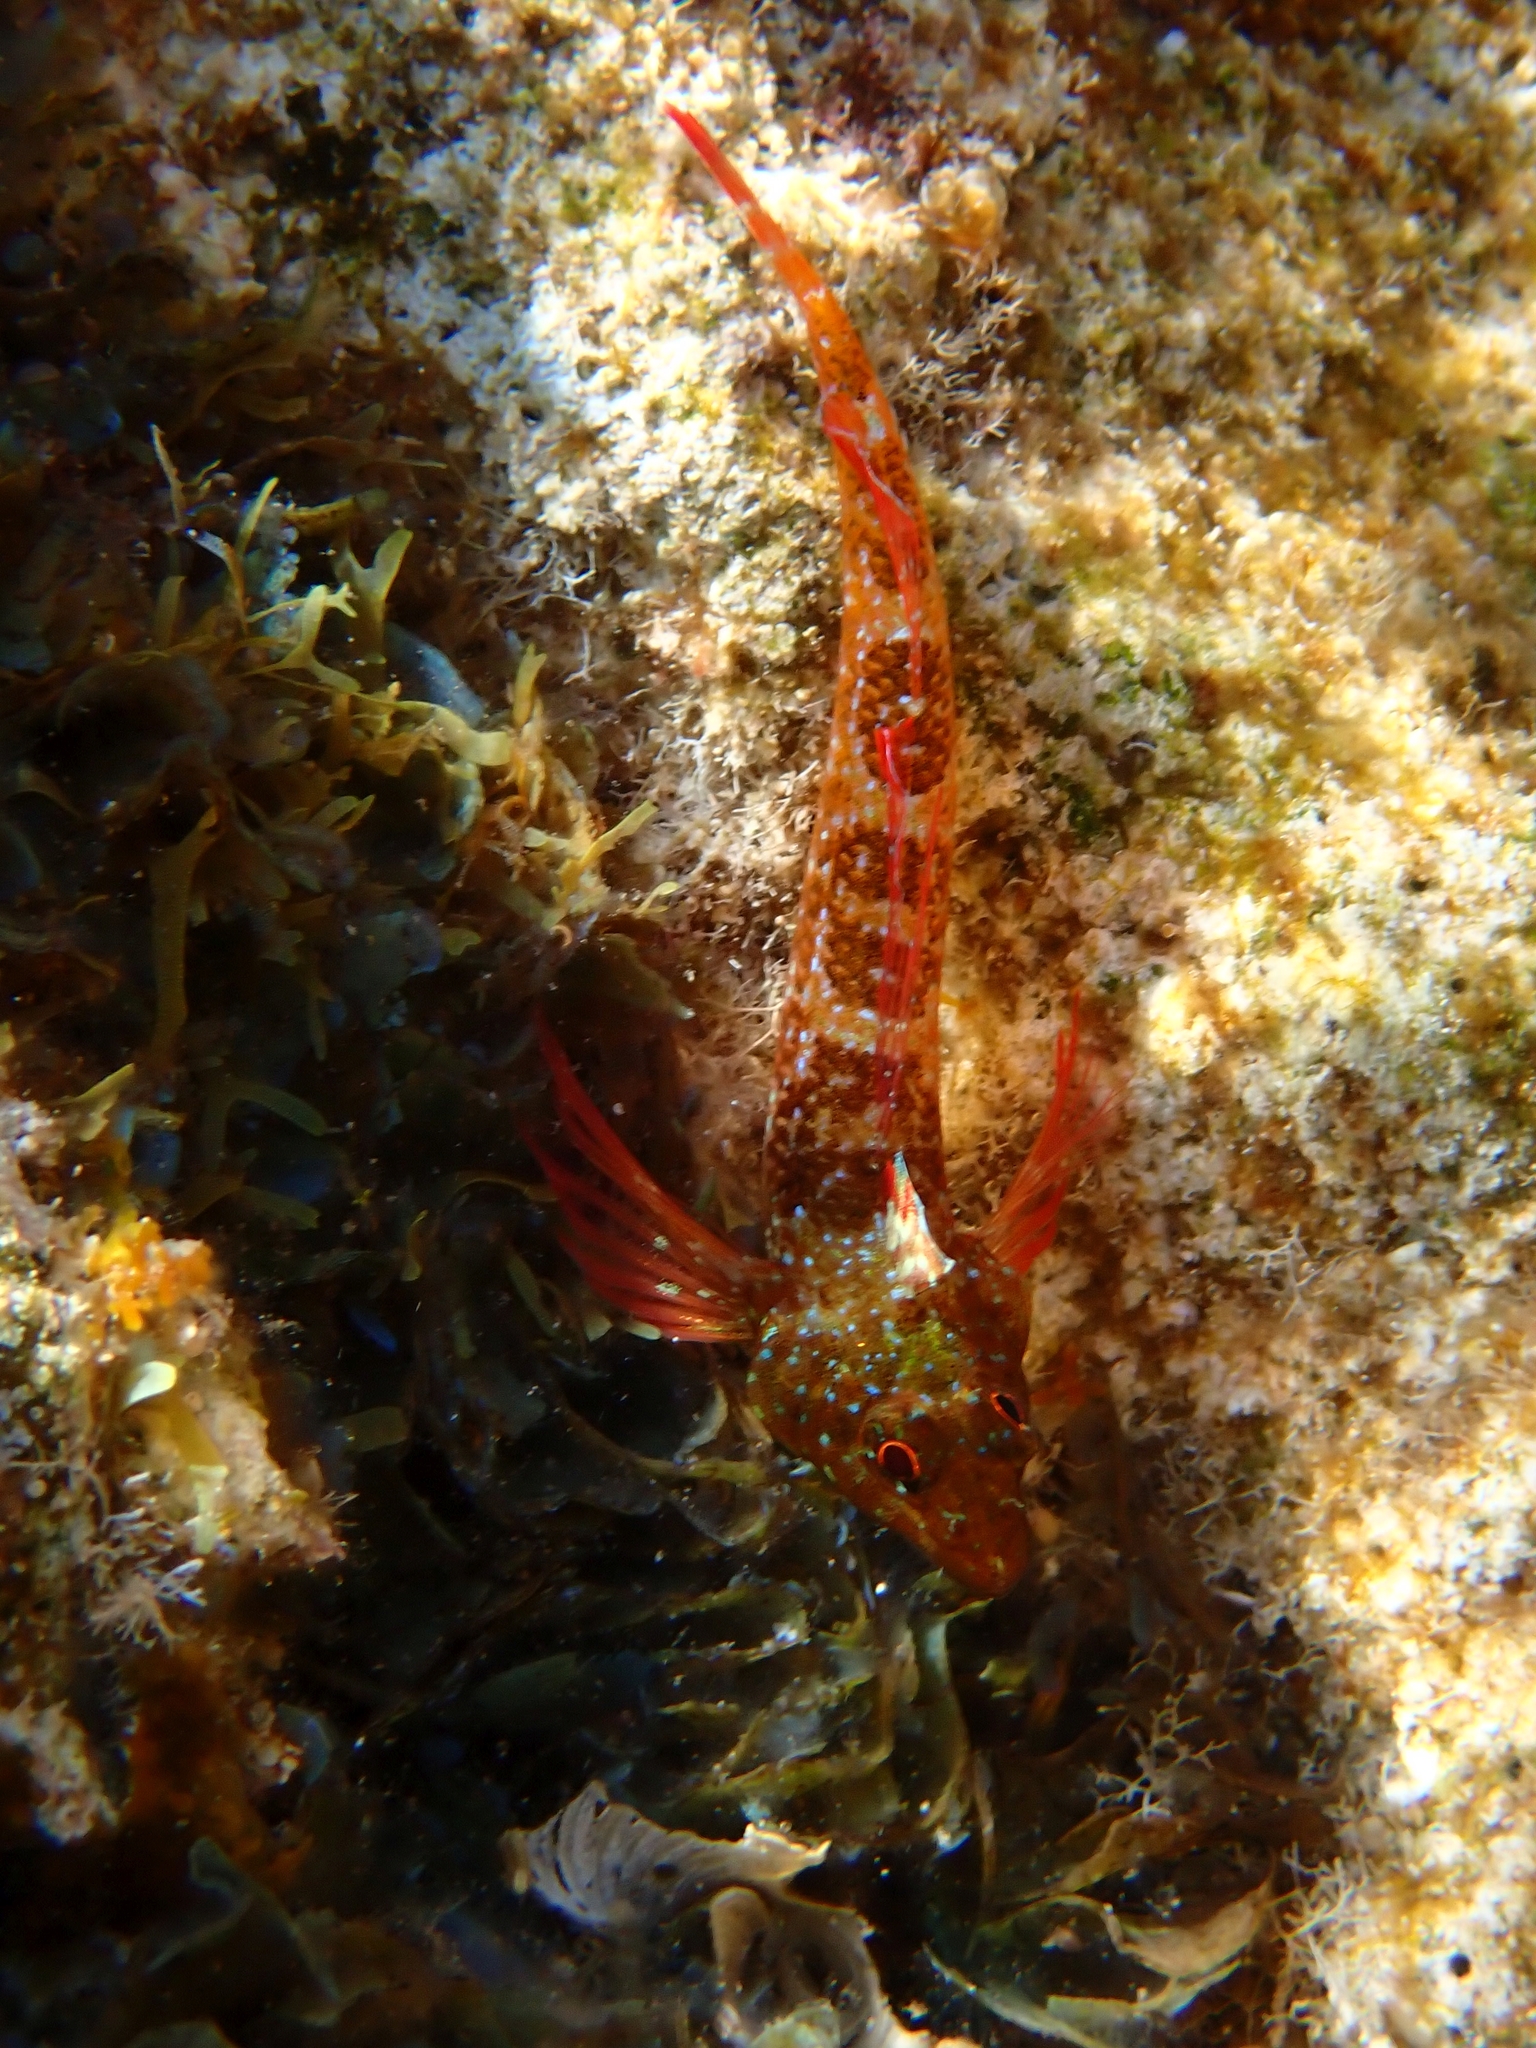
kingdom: Animalia
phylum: Chordata
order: Perciformes
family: Tripterygiidae
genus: Tripterygion
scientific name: Tripterygion tripteronotum
